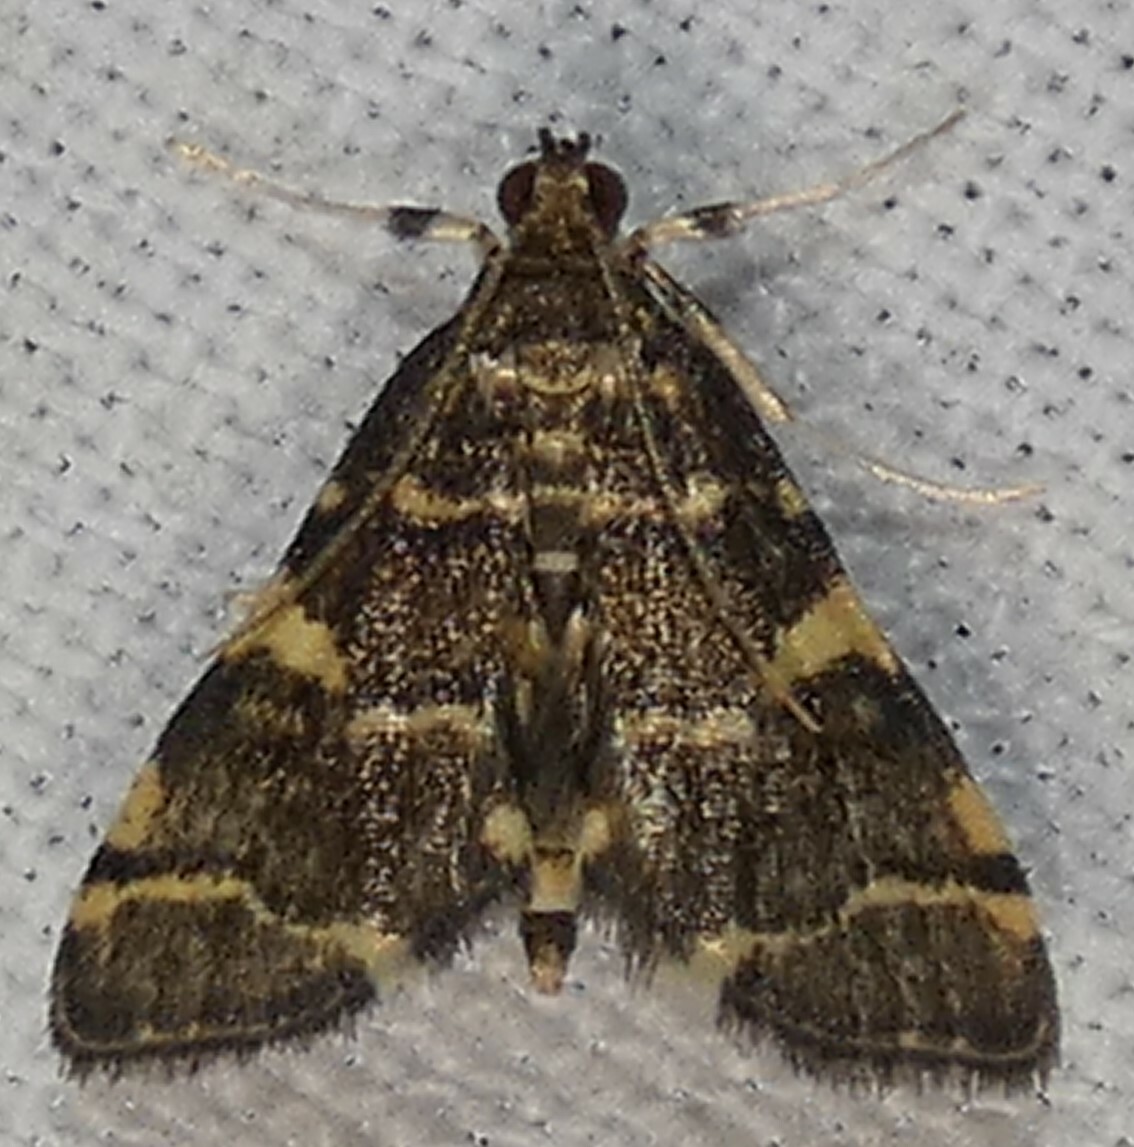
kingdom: Animalia
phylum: Arthropoda
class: Insecta
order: Lepidoptera
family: Crambidae
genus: Anageshna
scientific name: Anageshna primordialis
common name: Yellow-spotted webworm moth
